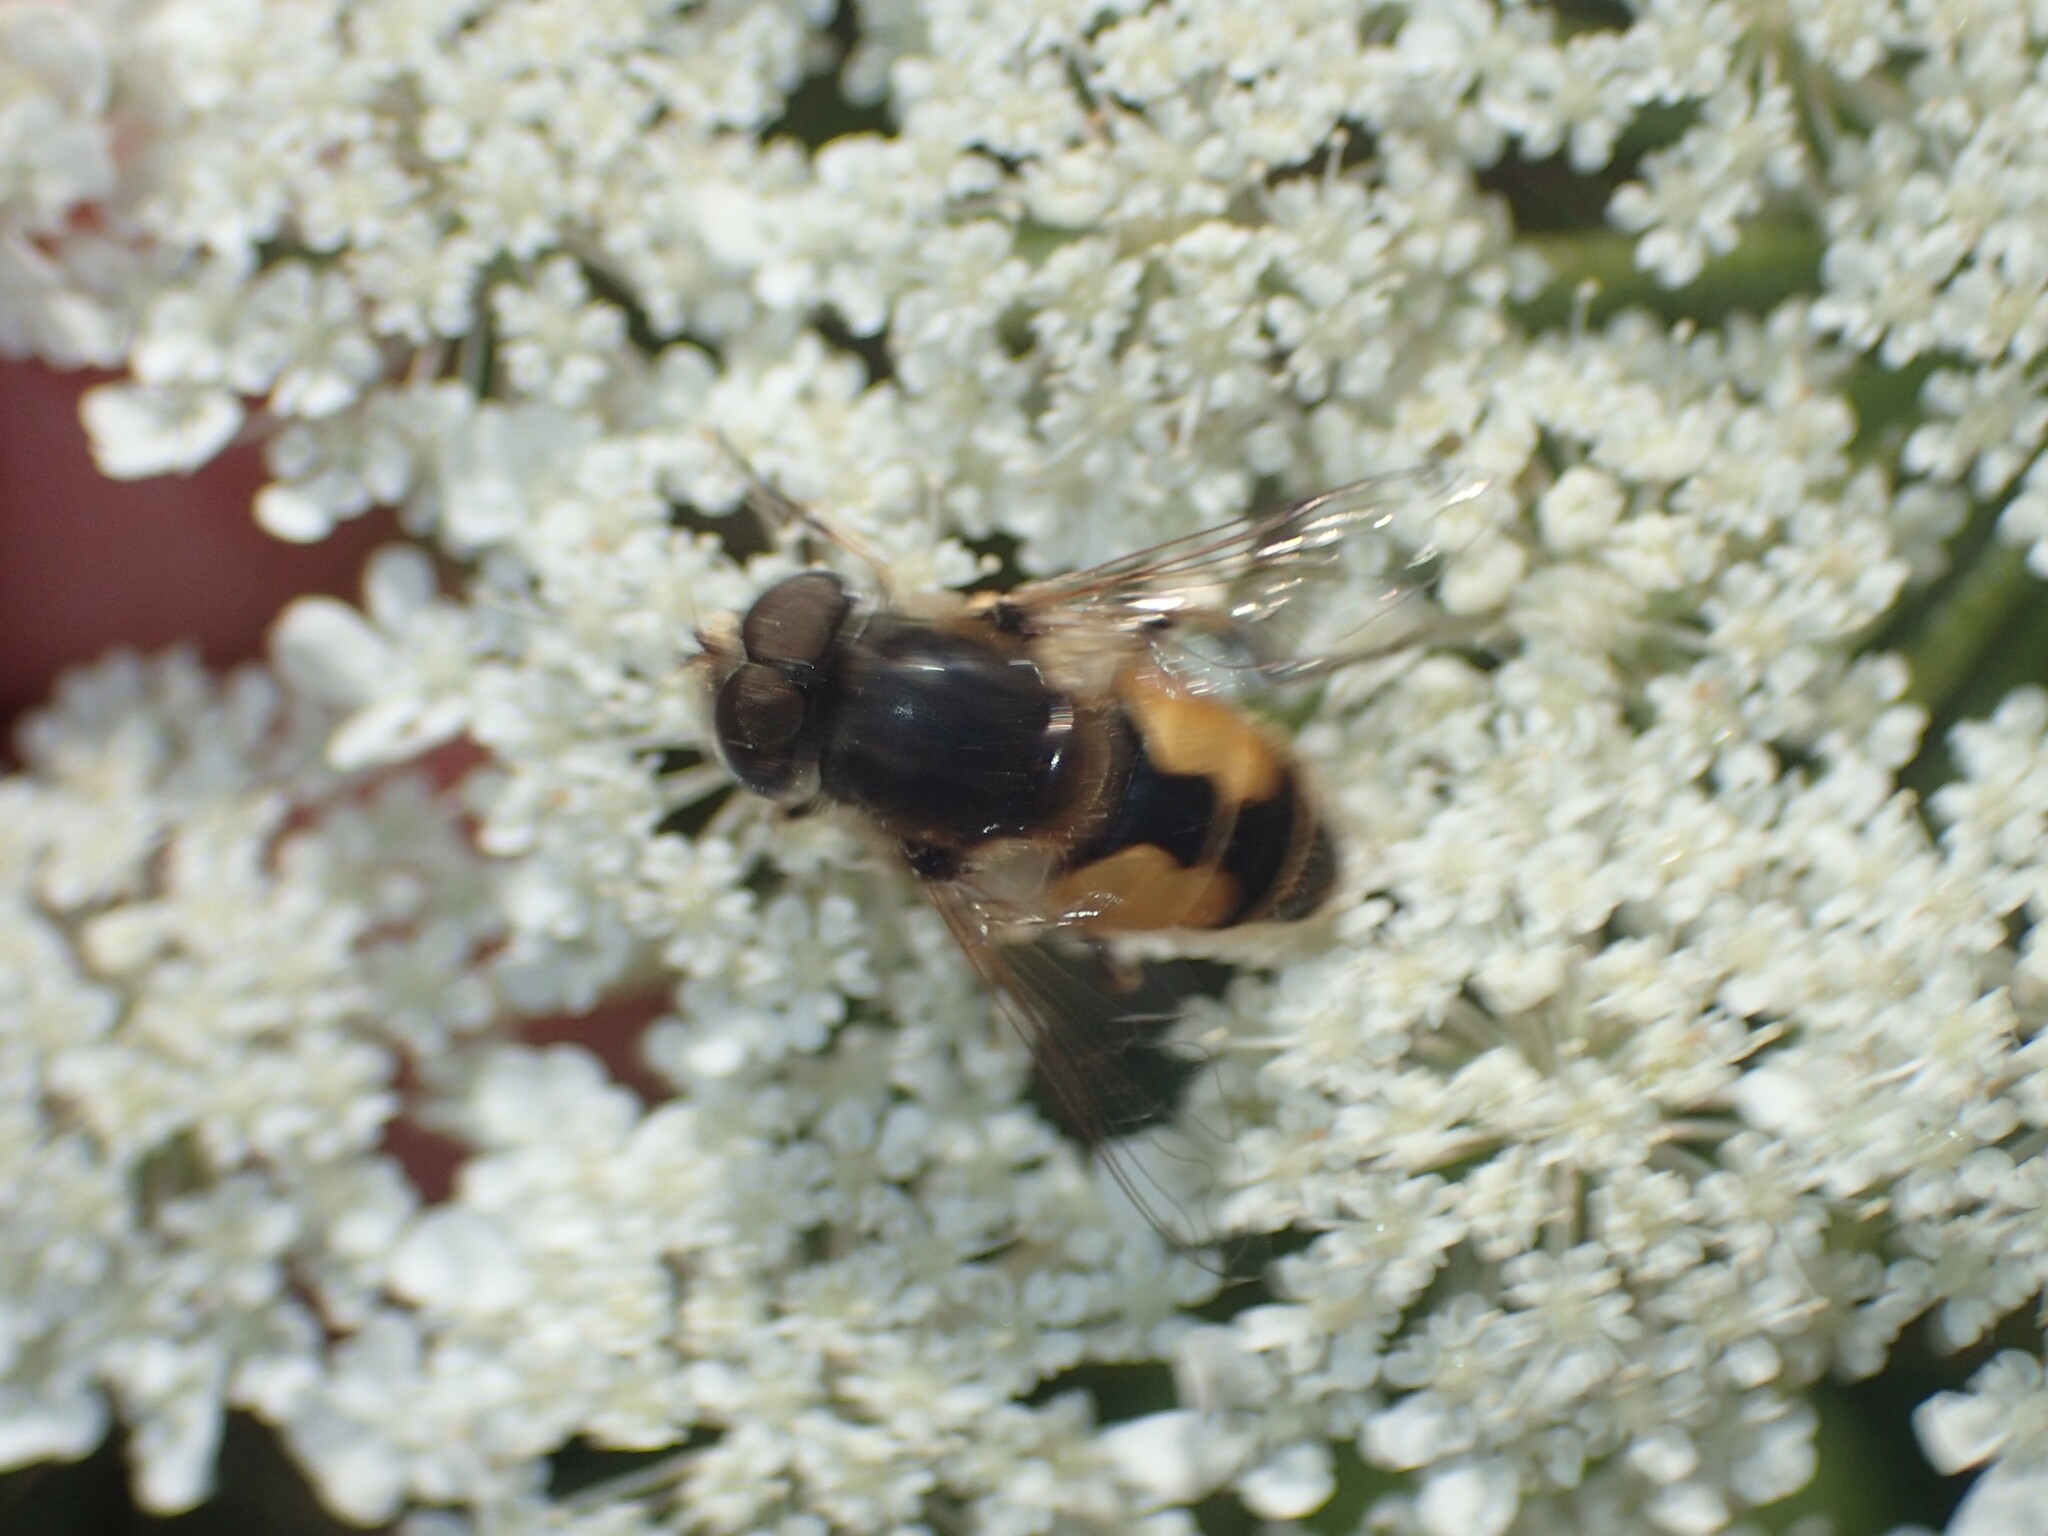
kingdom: Animalia
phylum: Arthropoda
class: Insecta
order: Diptera
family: Syrphidae
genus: Eristalis
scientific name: Eristalis arbustorum
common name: Hover fly
